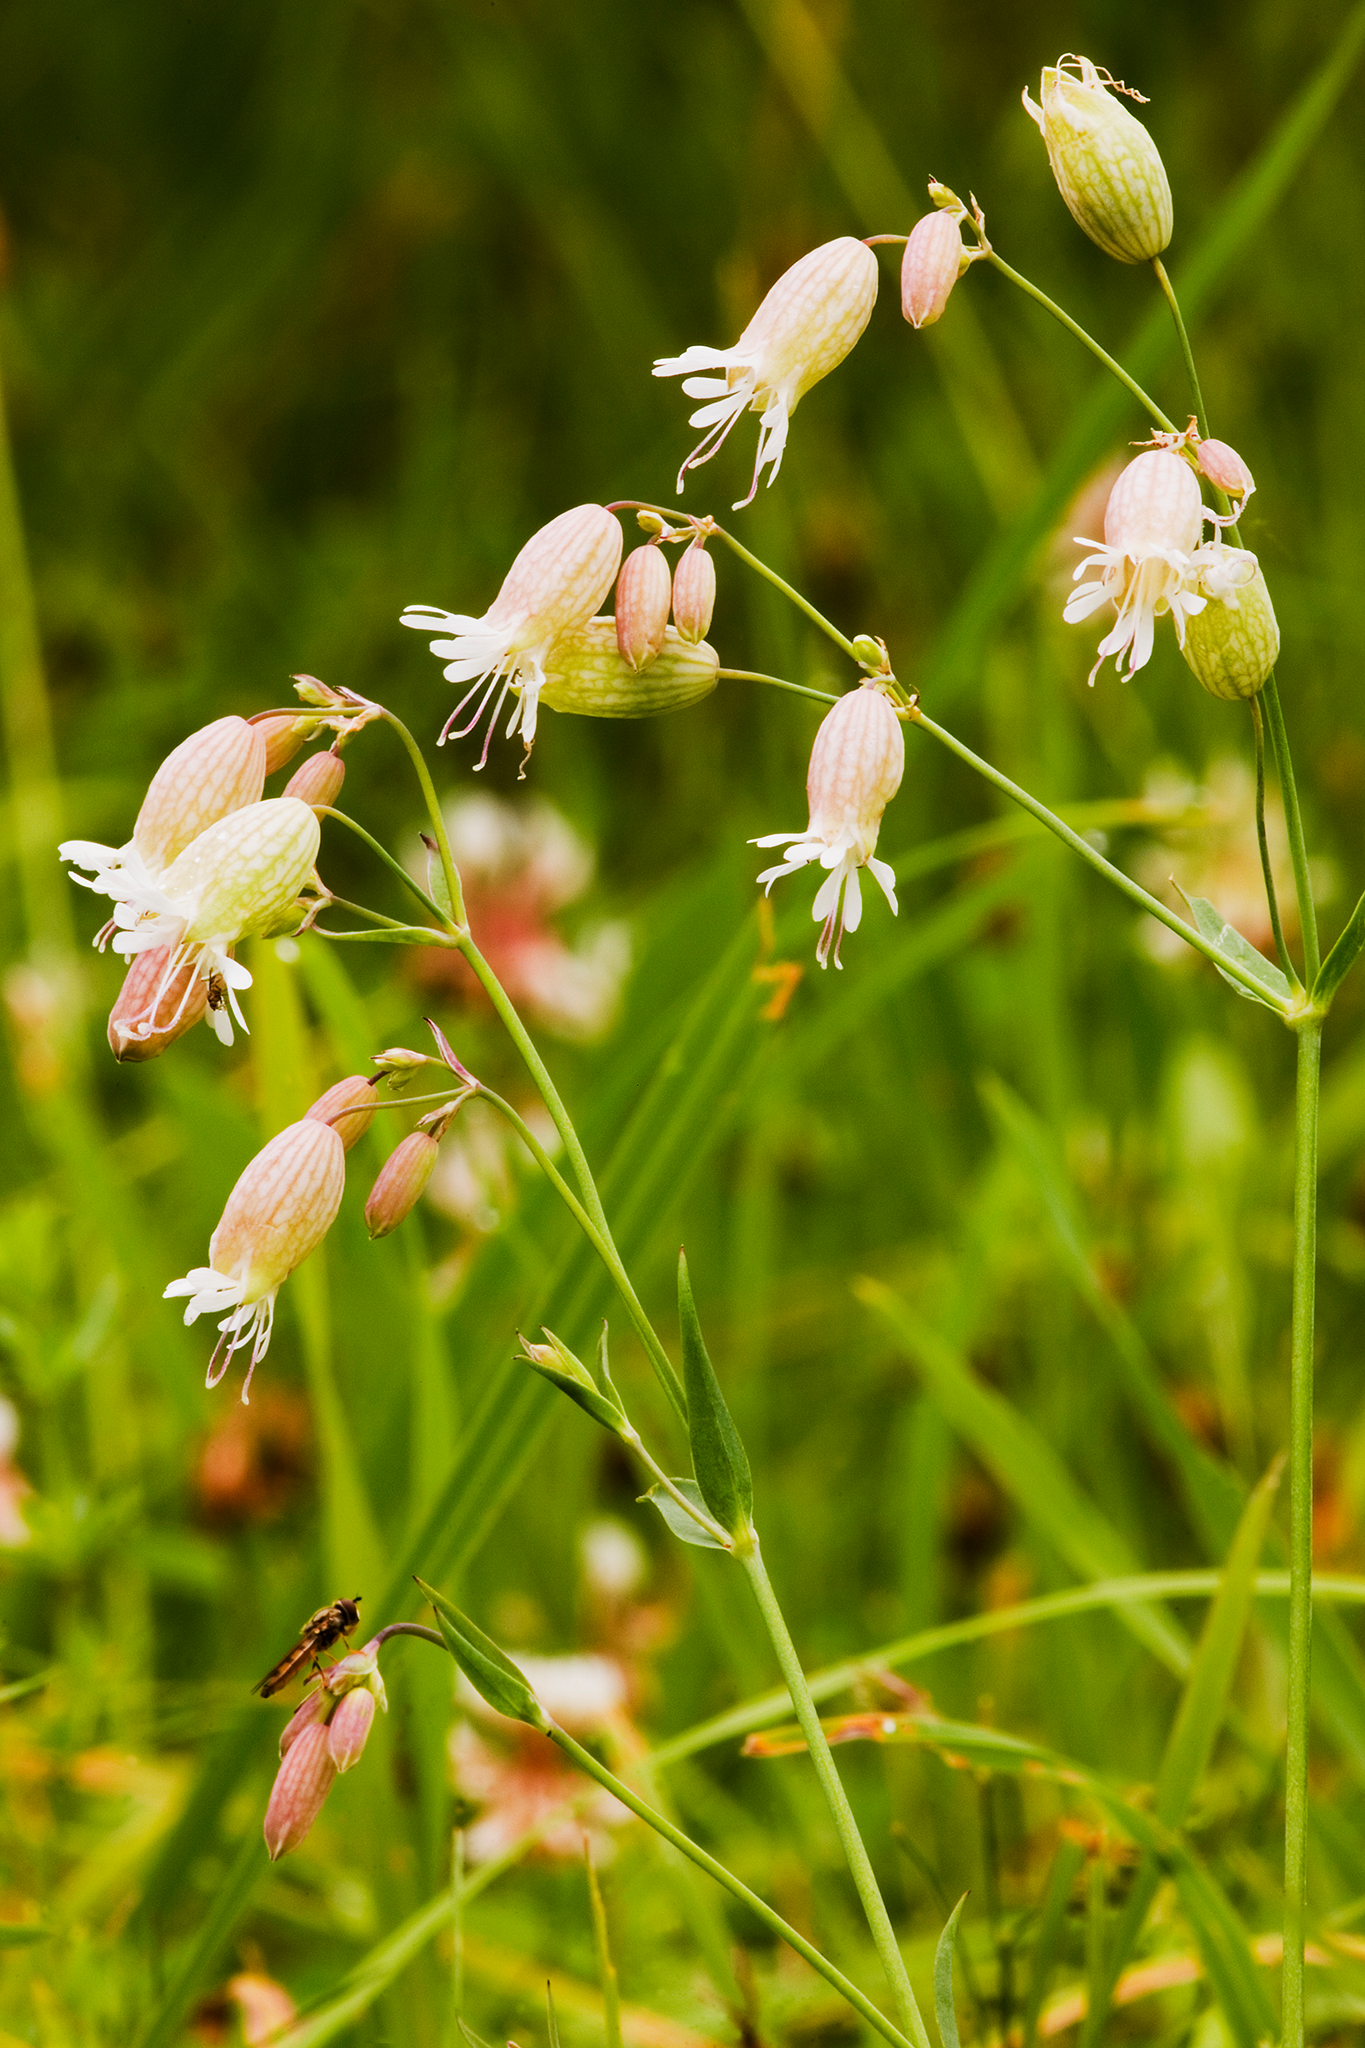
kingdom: Plantae
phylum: Tracheophyta
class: Magnoliopsida
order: Caryophyllales
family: Caryophyllaceae
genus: Silene
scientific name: Silene vulgaris
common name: Bladder campion
